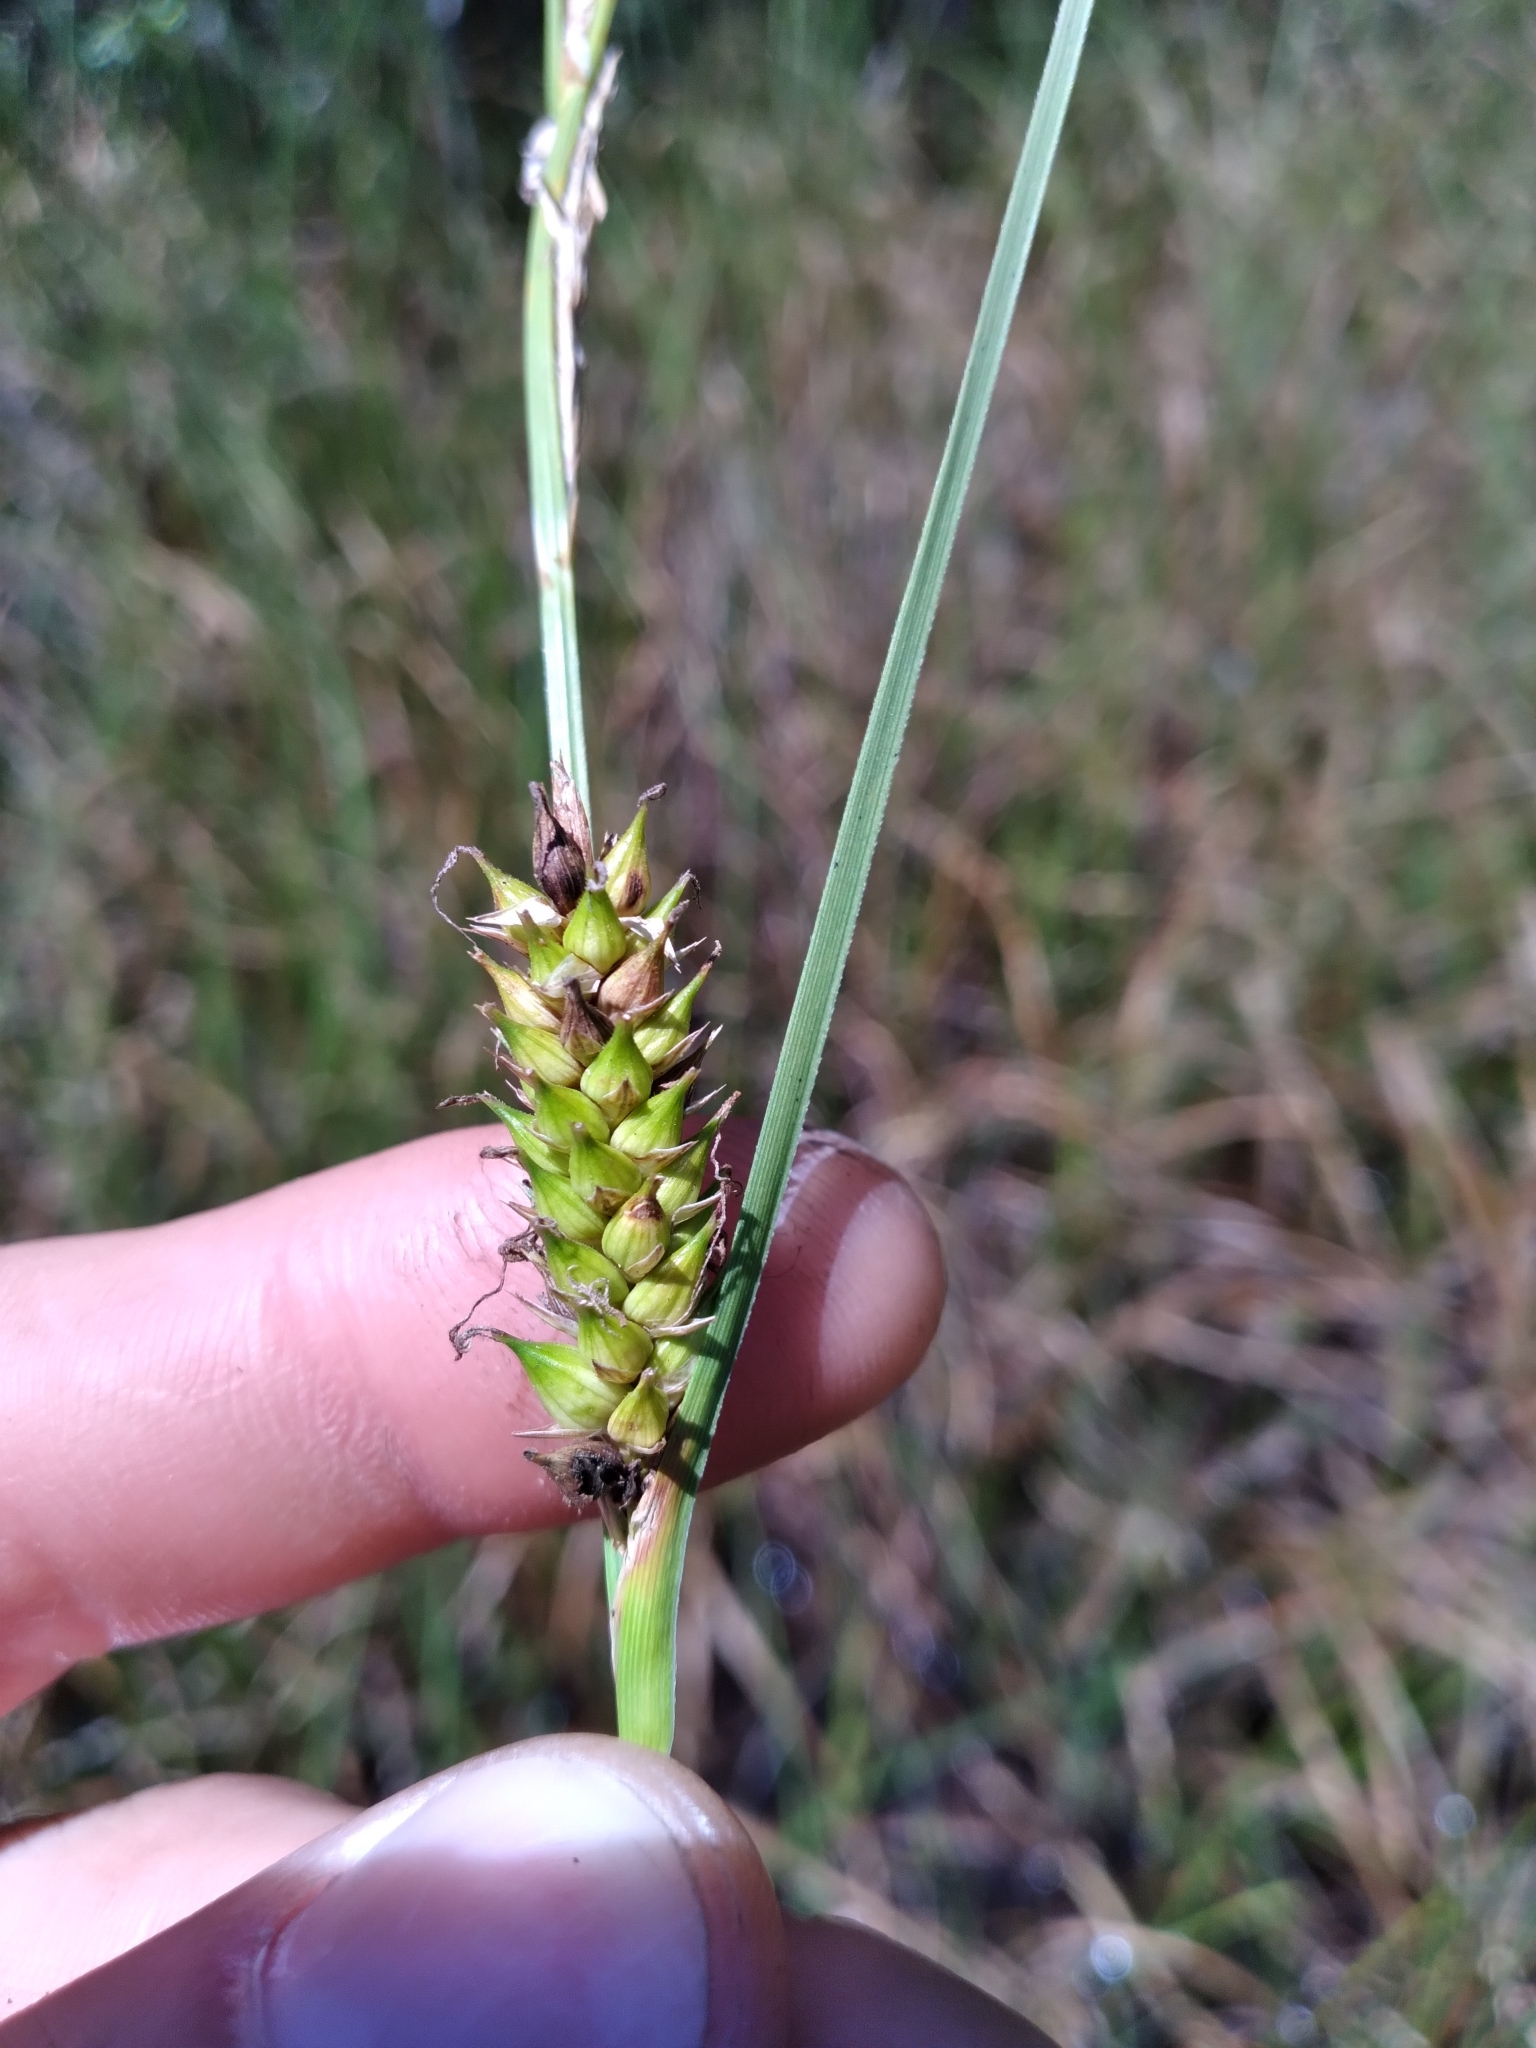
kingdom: Plantae
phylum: Tracheophyta
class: Liliopsida
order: Poales
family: Cyperaceae
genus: Carex
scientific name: Carex striata
